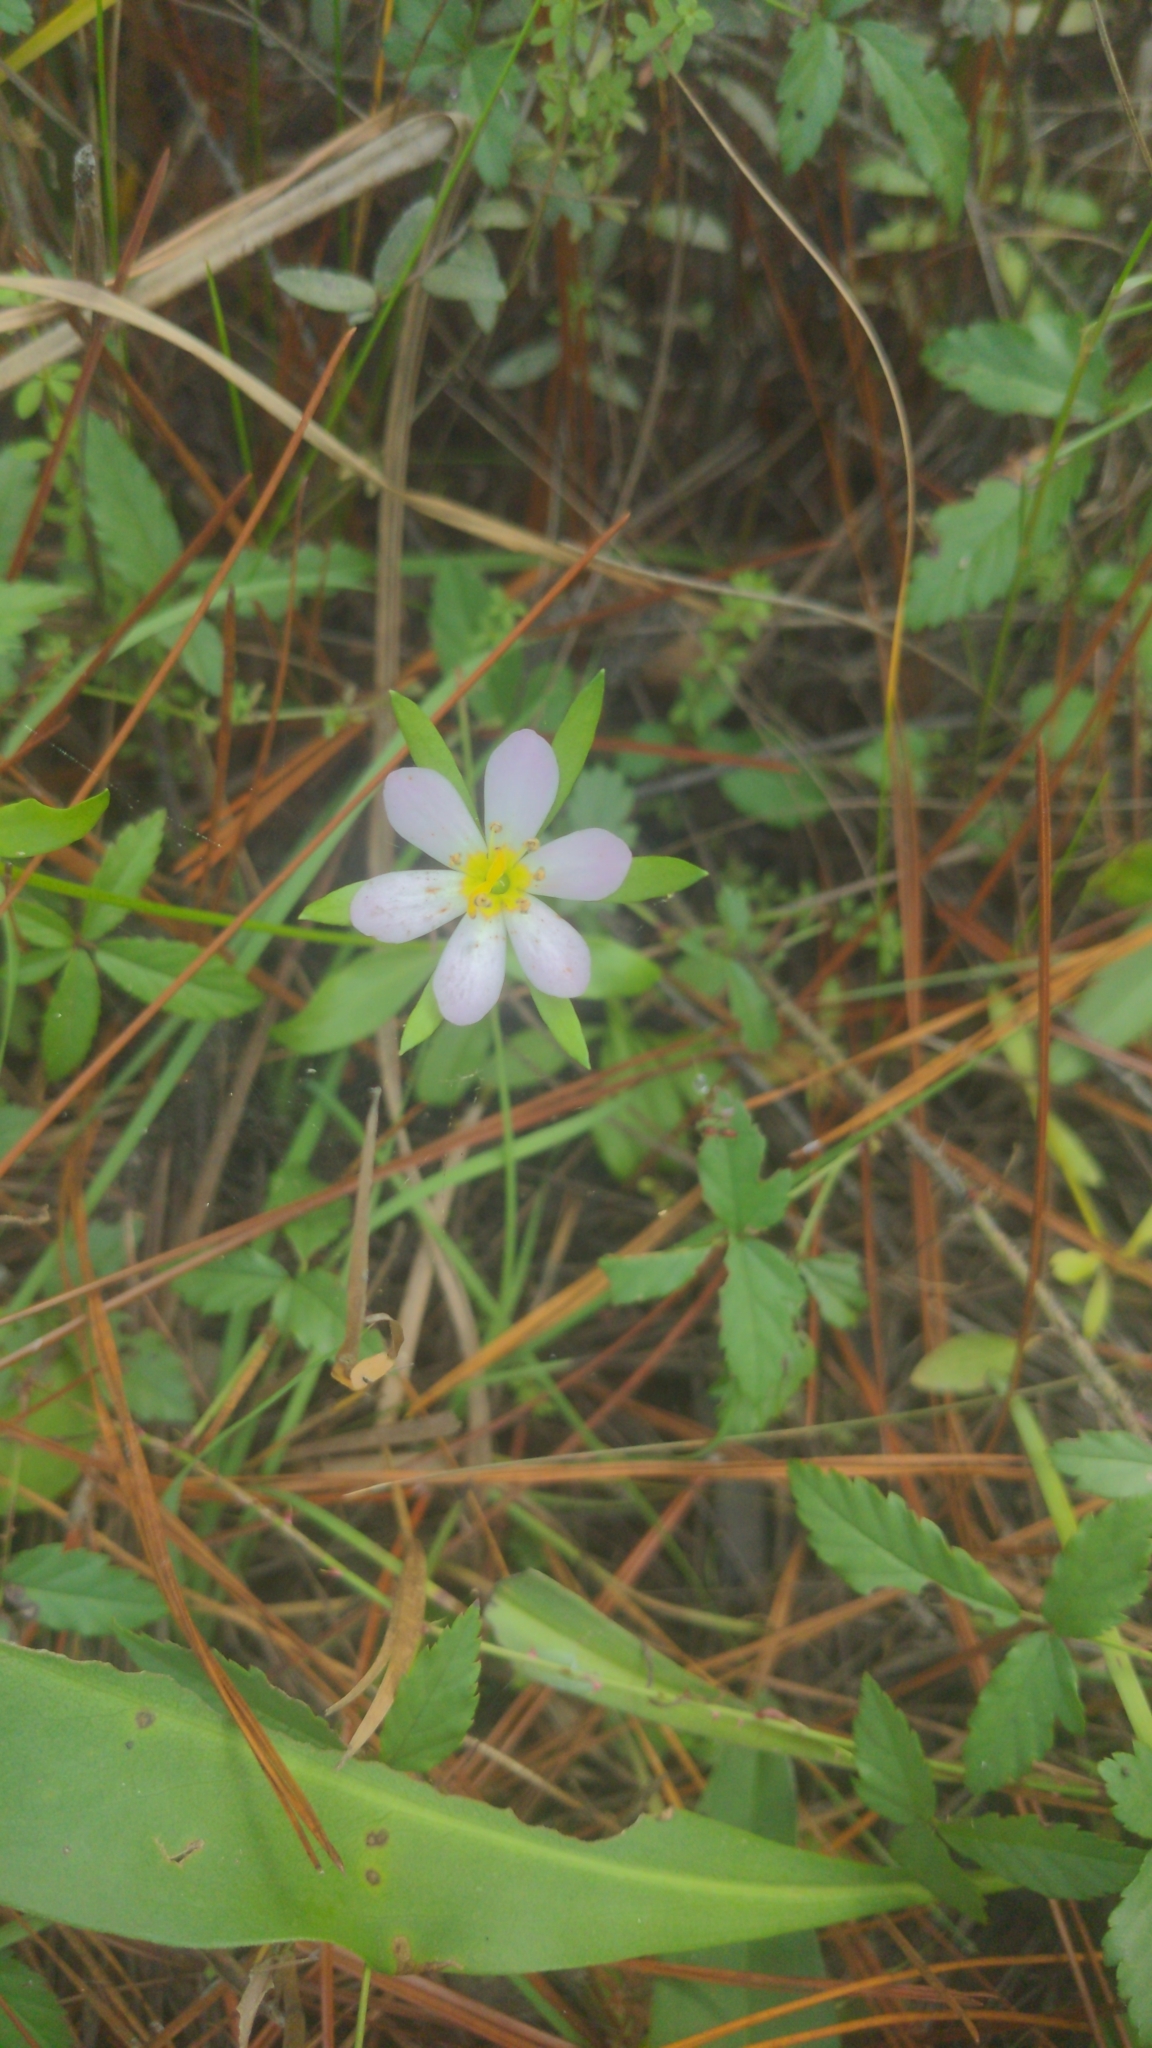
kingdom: Plantae
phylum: Tracheophyta
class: Magnoliopsida
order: Gentianales
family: Gentianaceae
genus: Sabatia
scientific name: Sabatia calycina
